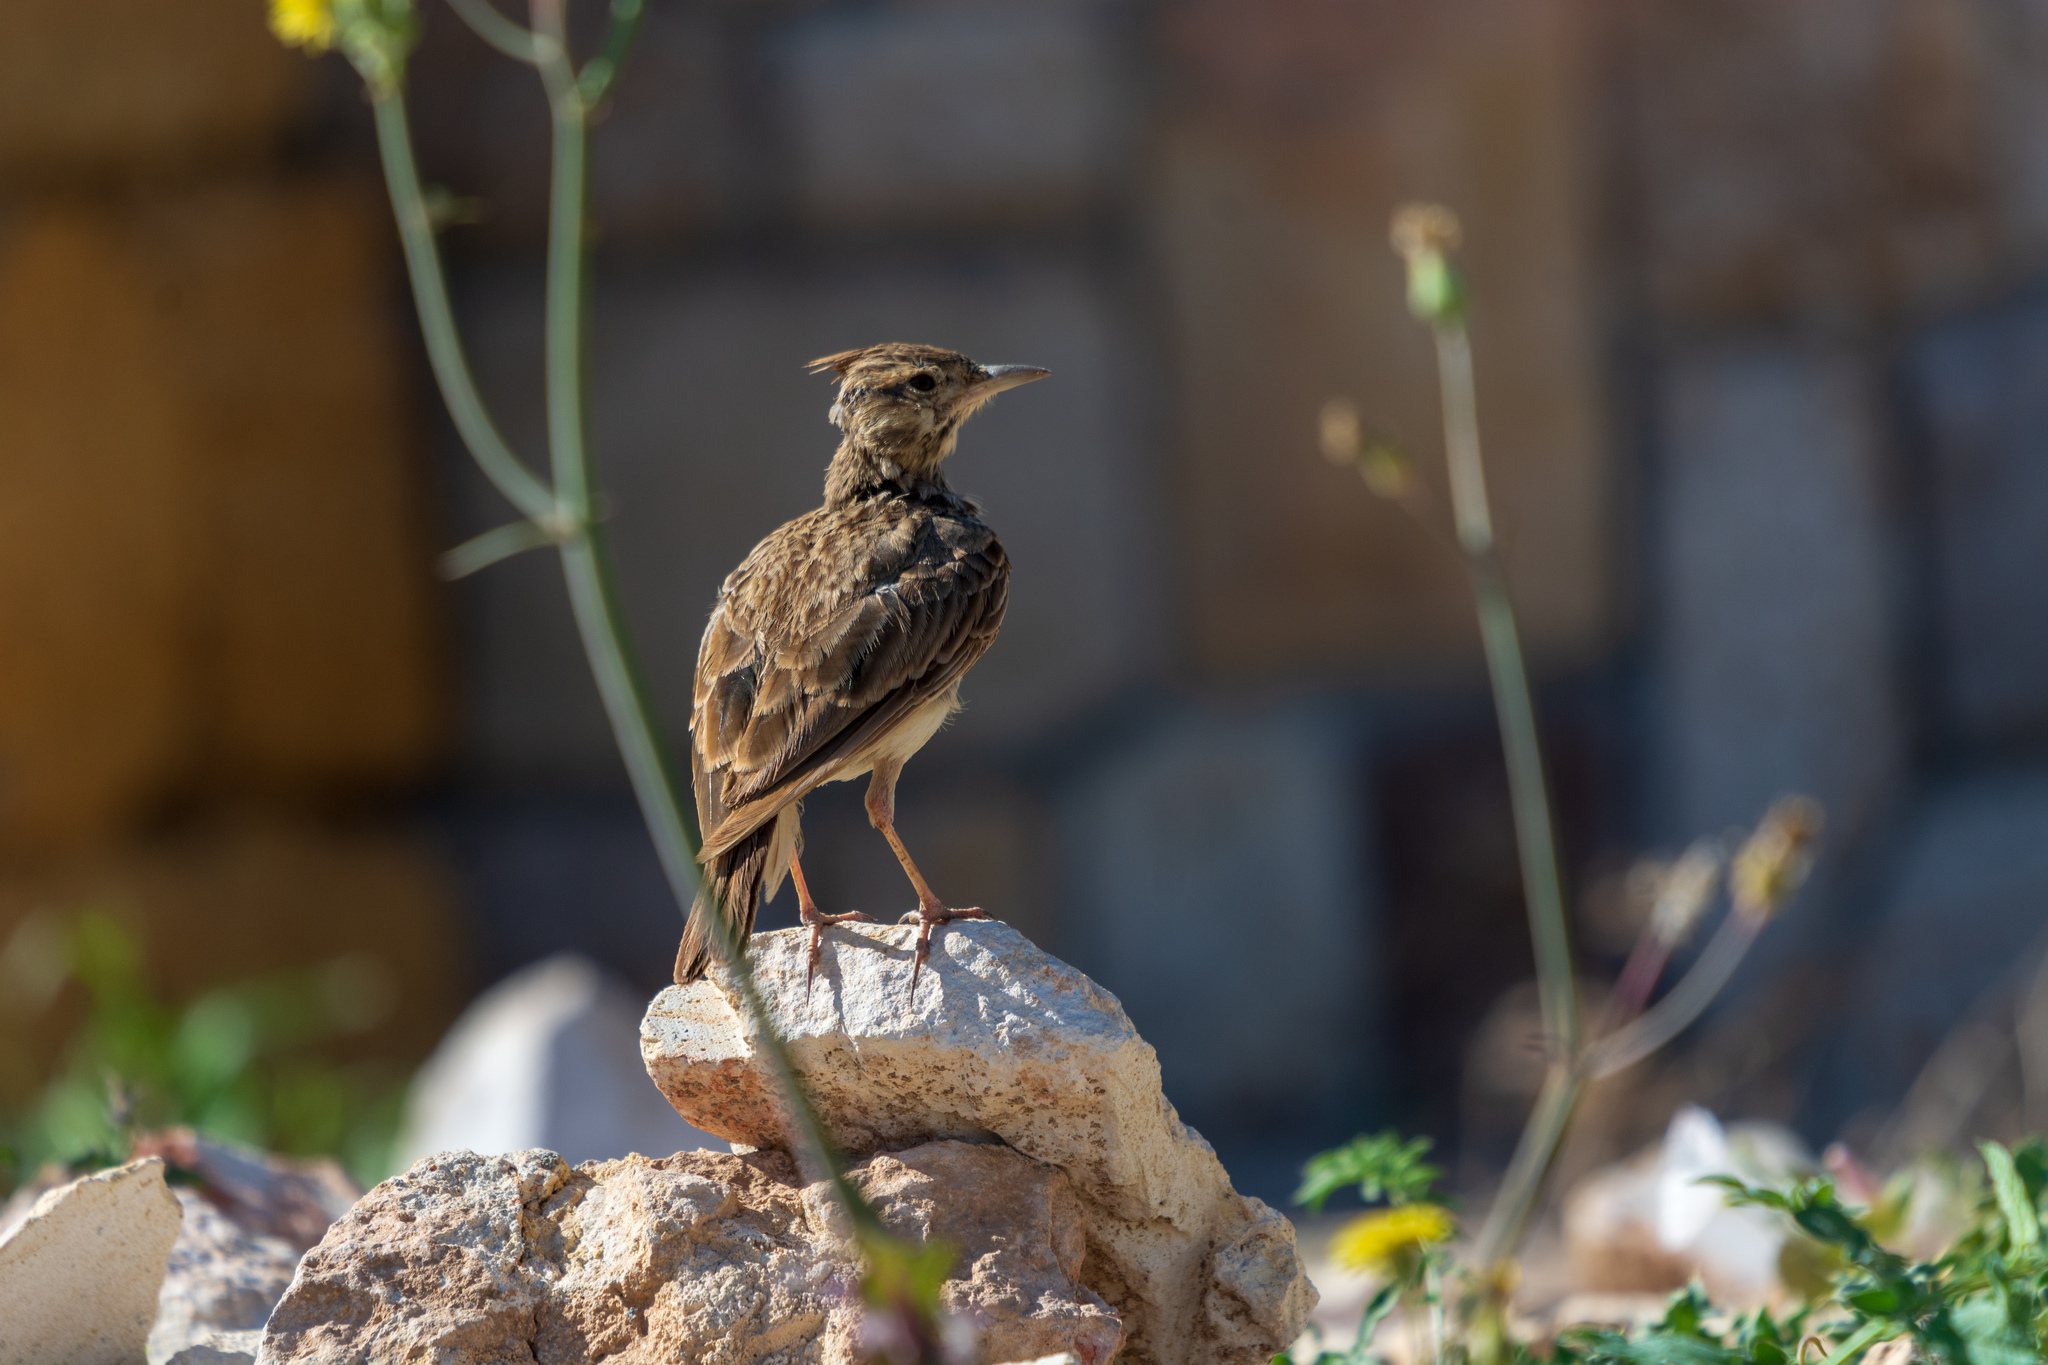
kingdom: Animalia
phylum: Chordata
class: Aves
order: Passeriformes
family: Alaudidae
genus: Galerida
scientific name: Galerida cristata
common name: Crested lark
